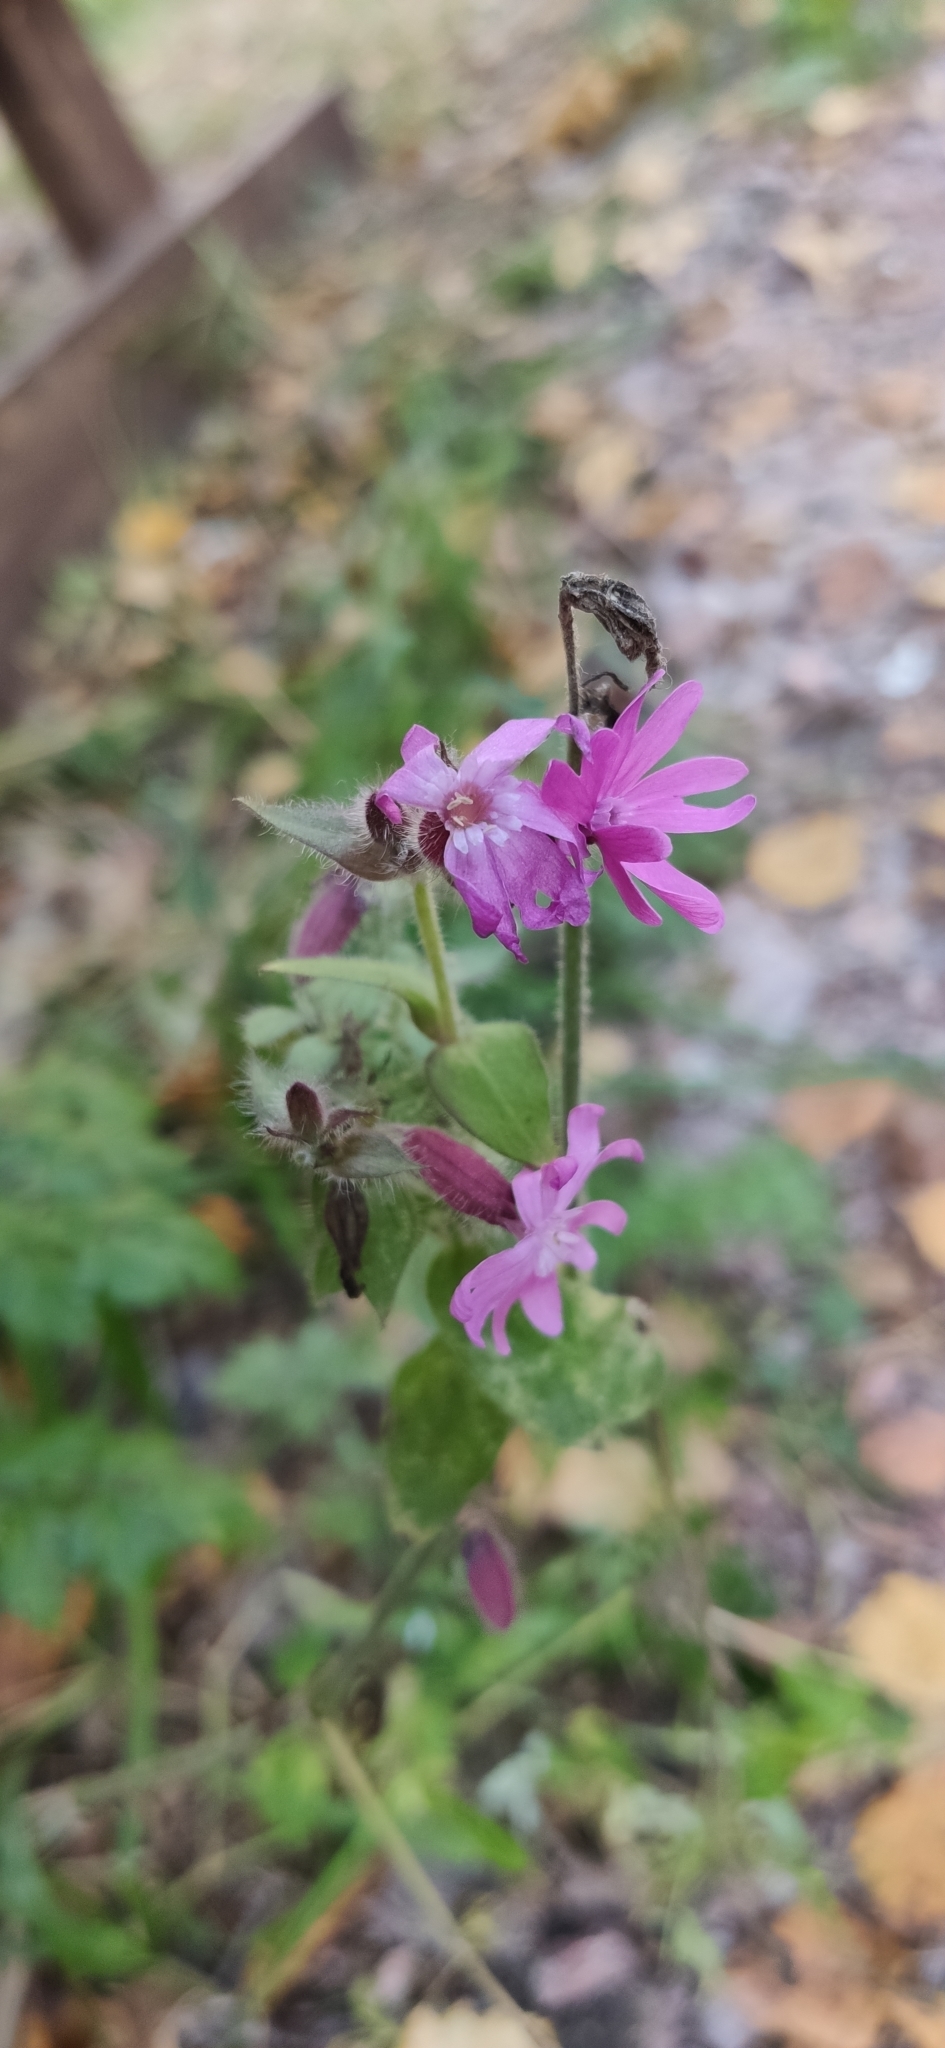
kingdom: Plantae
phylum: Tracheophyta
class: Magnoliopsida
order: Caryophyllales
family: Caryophyllaceae
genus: Silene
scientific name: Silene dioica
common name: Red campion
